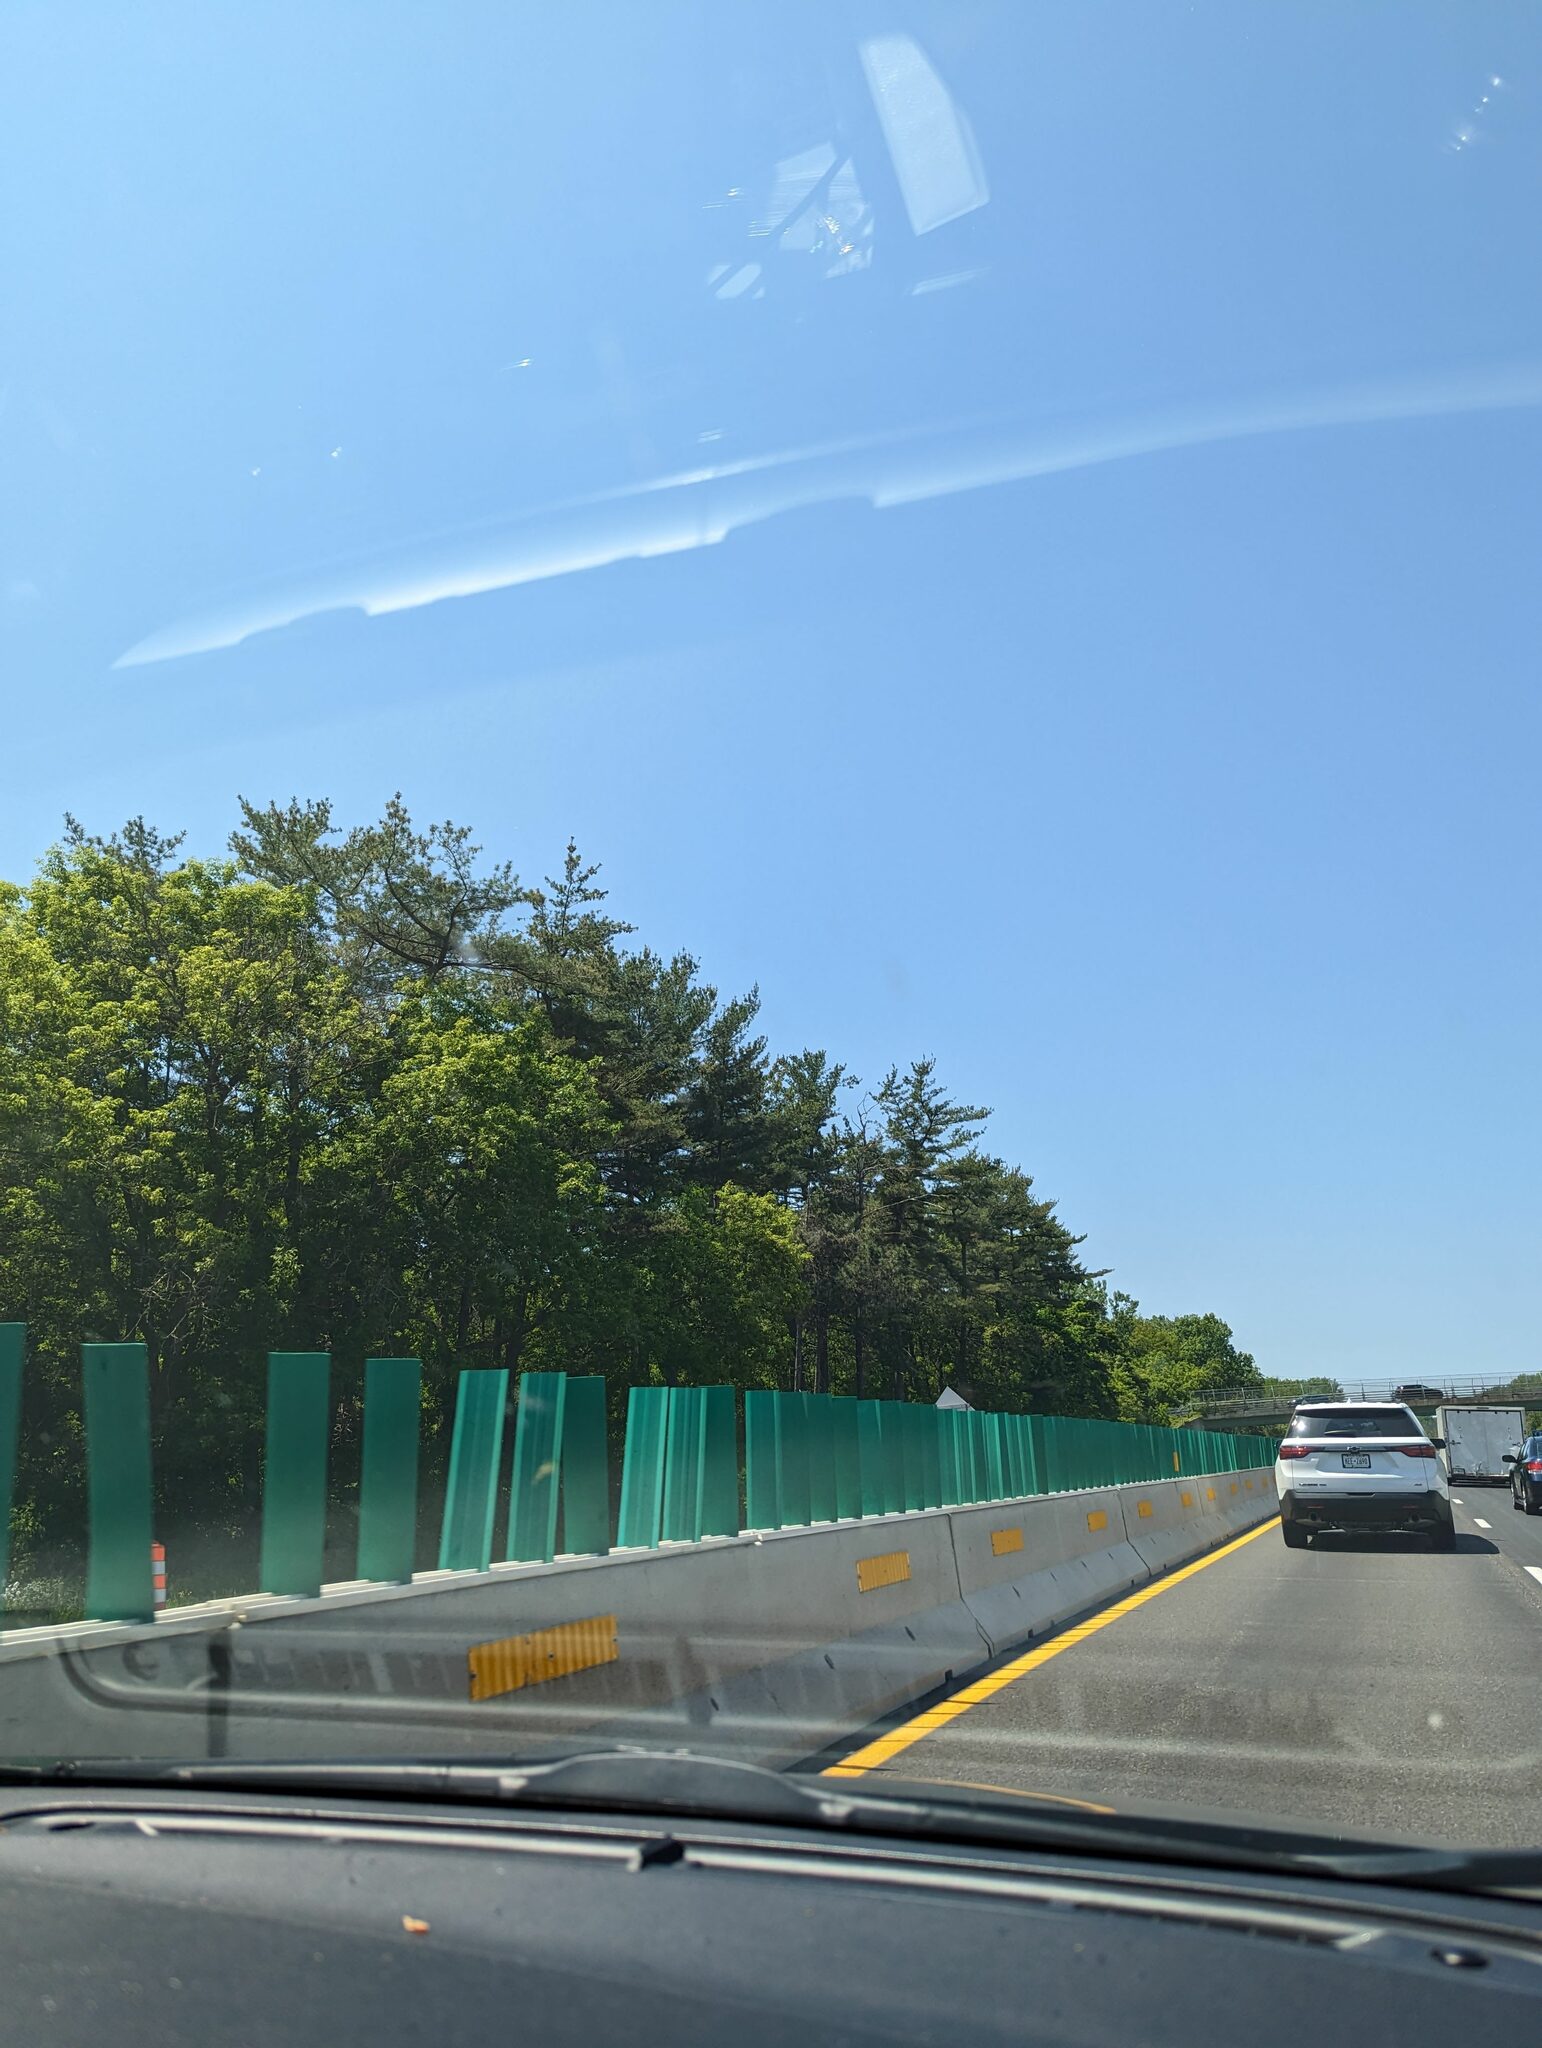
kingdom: Plantae
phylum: Tracheophyta
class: Pinopsida
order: Pinales
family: Pinaceae
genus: Pinus
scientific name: Pinus strobus
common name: Weymouth pine
